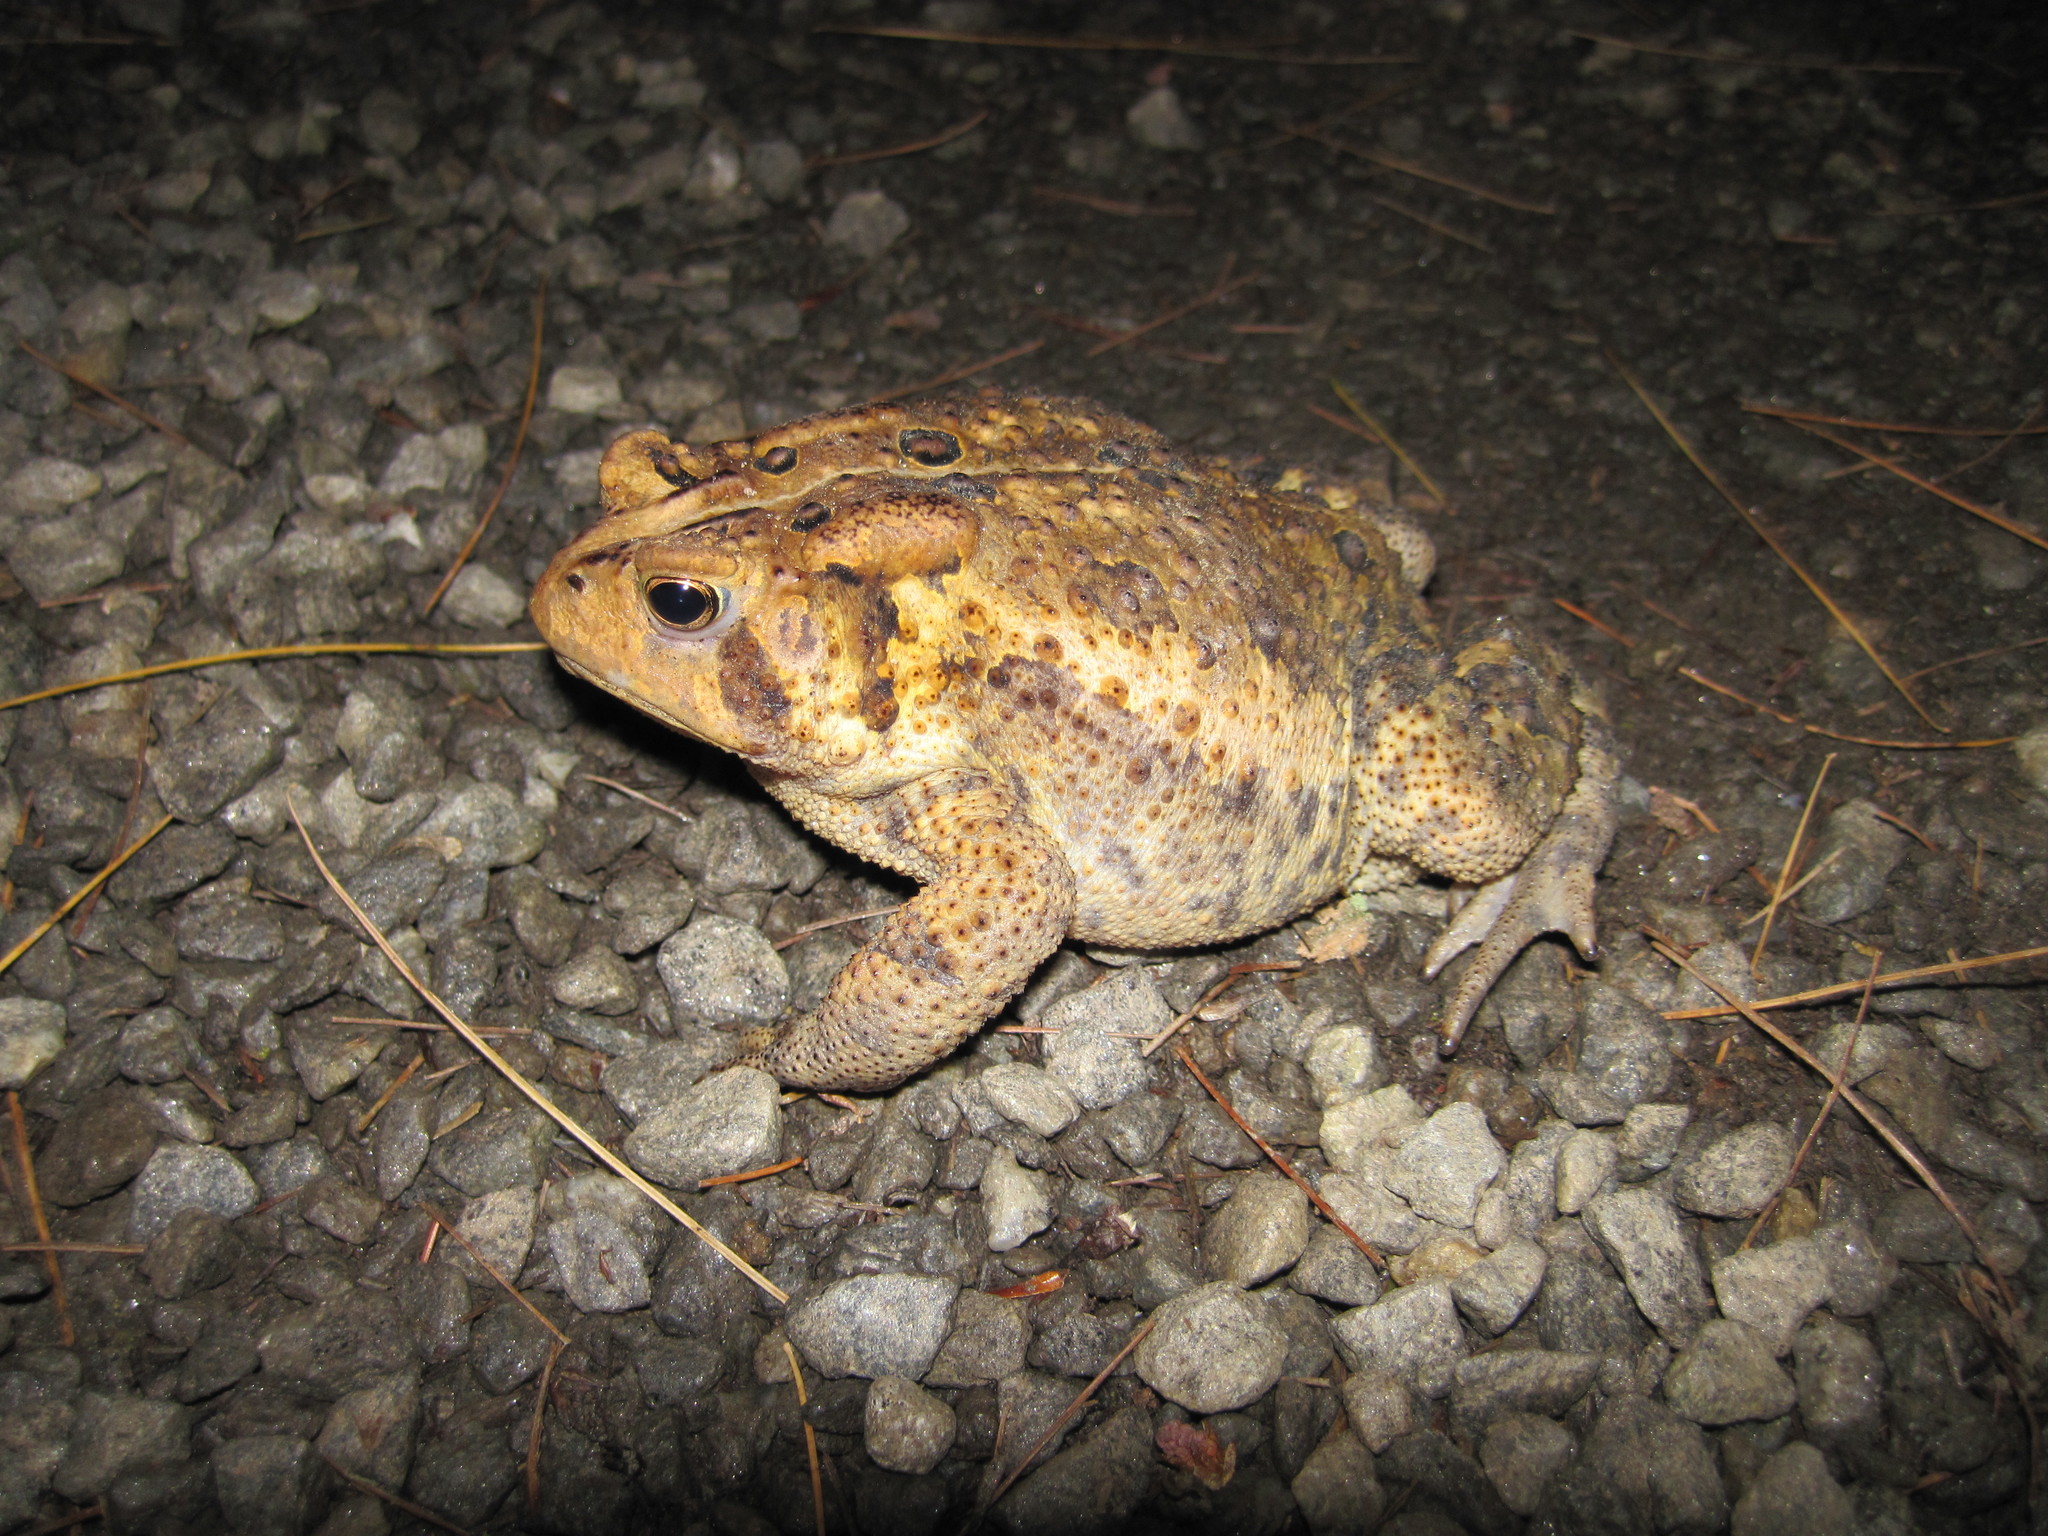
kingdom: Animalia
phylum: Chordata
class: Amphibia
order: Anura
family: Bufonidae
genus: Anaxyrus
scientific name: Anaxyrus americanus
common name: American toad
